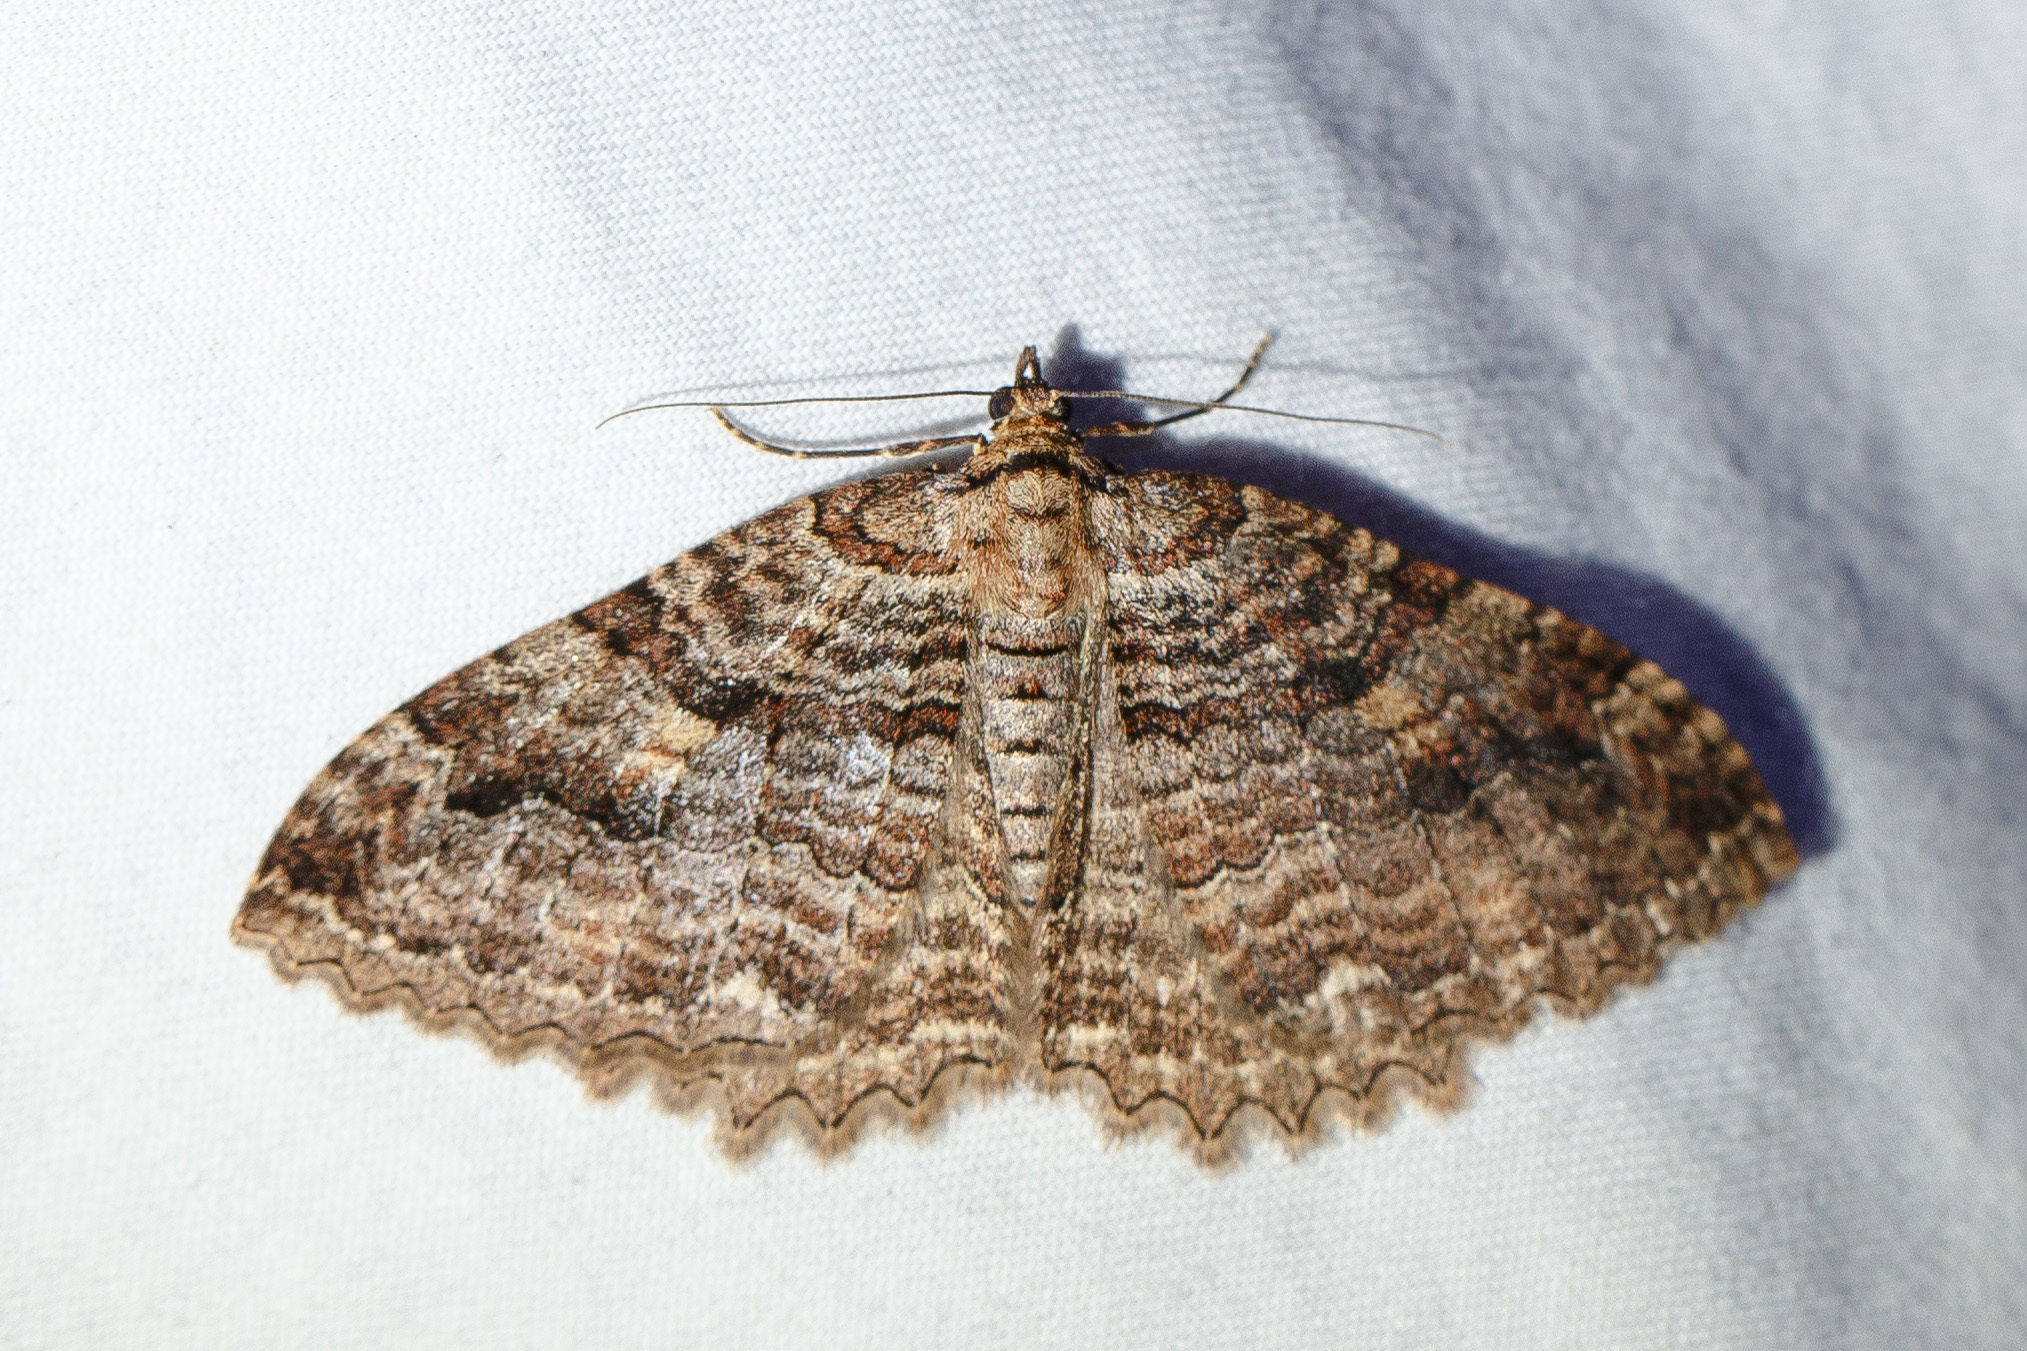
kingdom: Animalia
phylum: Arthropoda
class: Insecta
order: Lepidoptera
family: Geometridae
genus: Triphosa
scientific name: Triphosa haesitata
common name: Tissue moth
